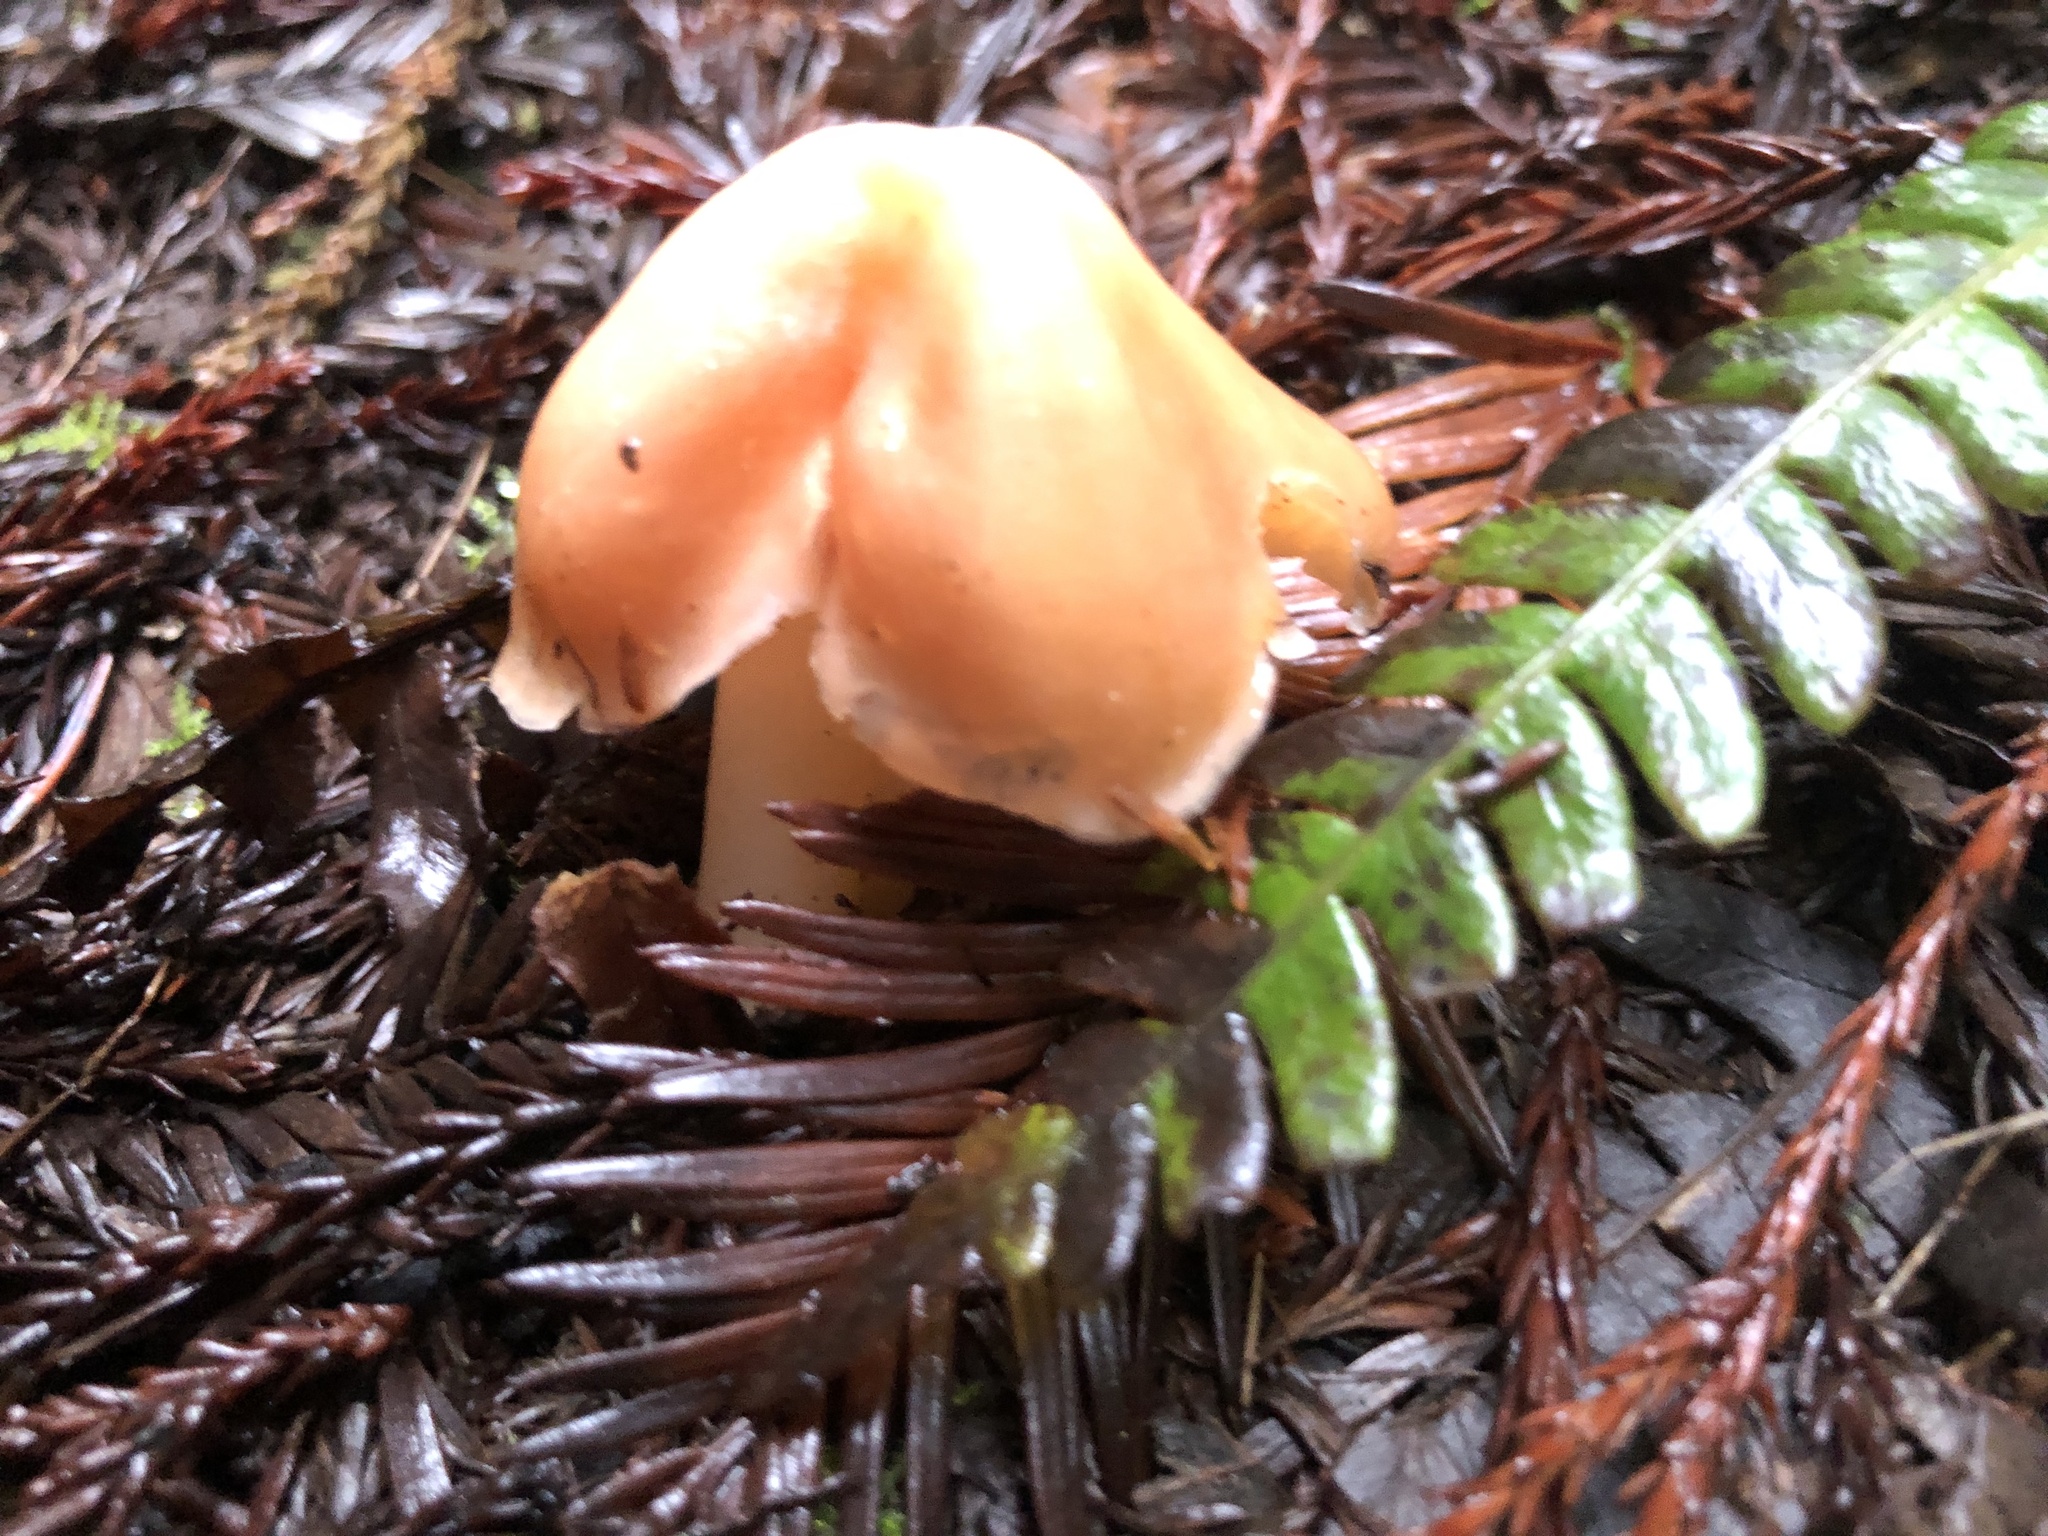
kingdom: Fungi
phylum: Basidiomycota
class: Agaricomycetes
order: Agaricales
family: Hygrophoraceae
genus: Porpolomopsis
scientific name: Porpolomopsis calyptriformis
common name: Pink waxcap
